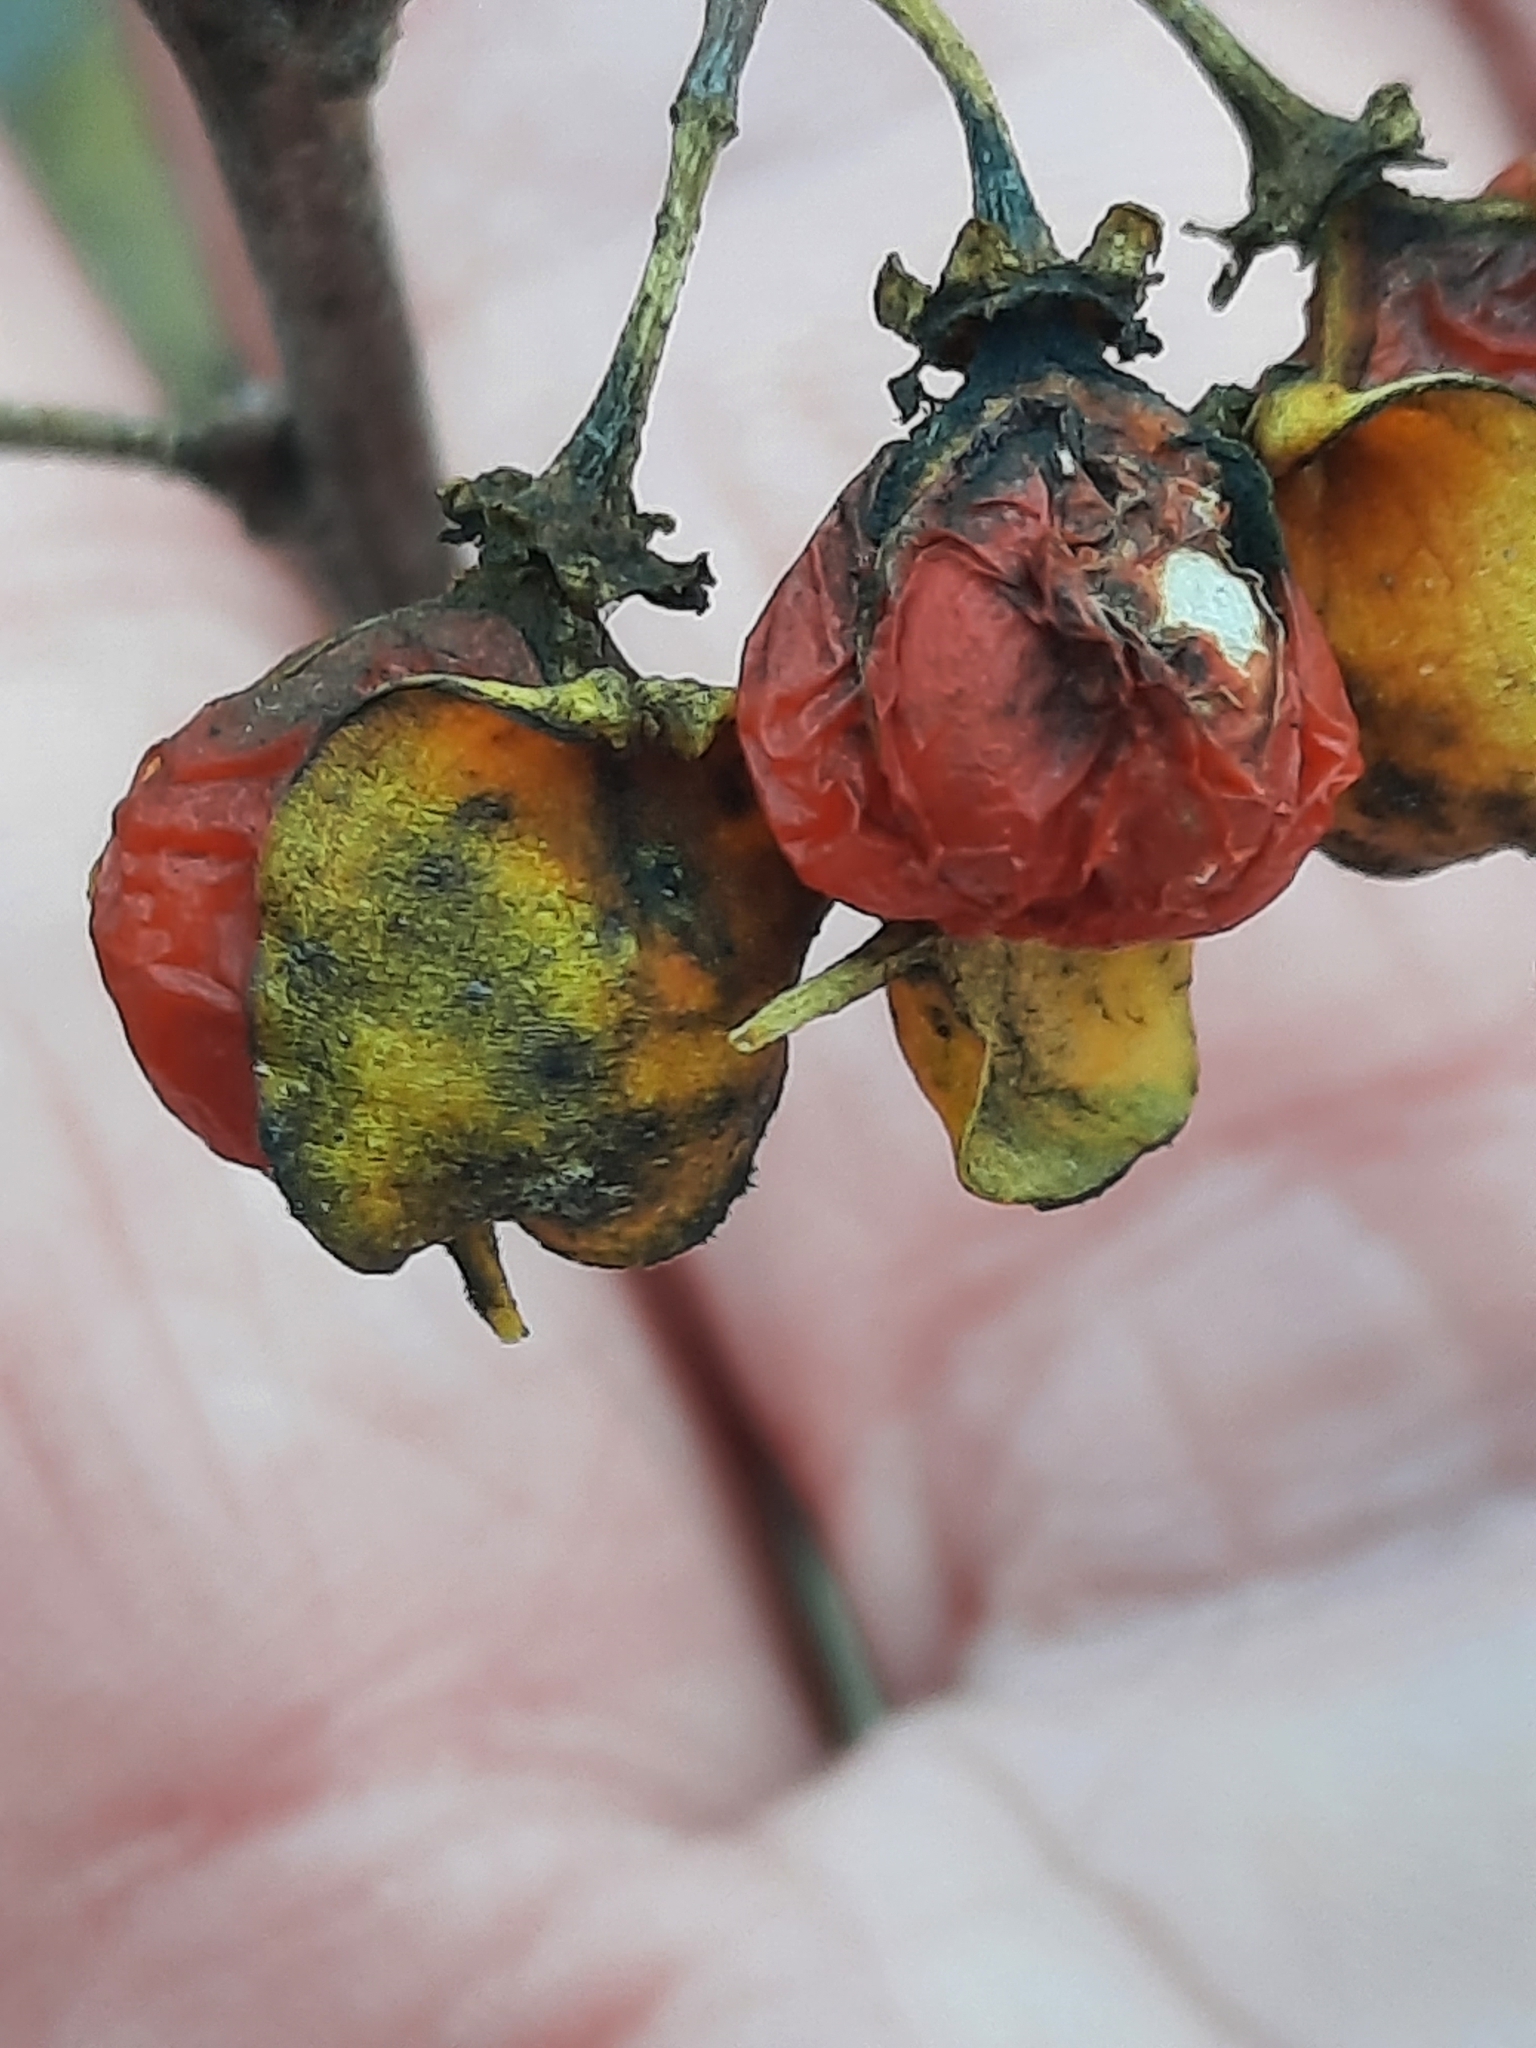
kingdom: Plantae
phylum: Tracheophyta
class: Magnoliopsida
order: Celastrales
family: Celastraceae
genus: Celastrus
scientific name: Celastrus orbiculatus
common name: Oriental bittersweet
